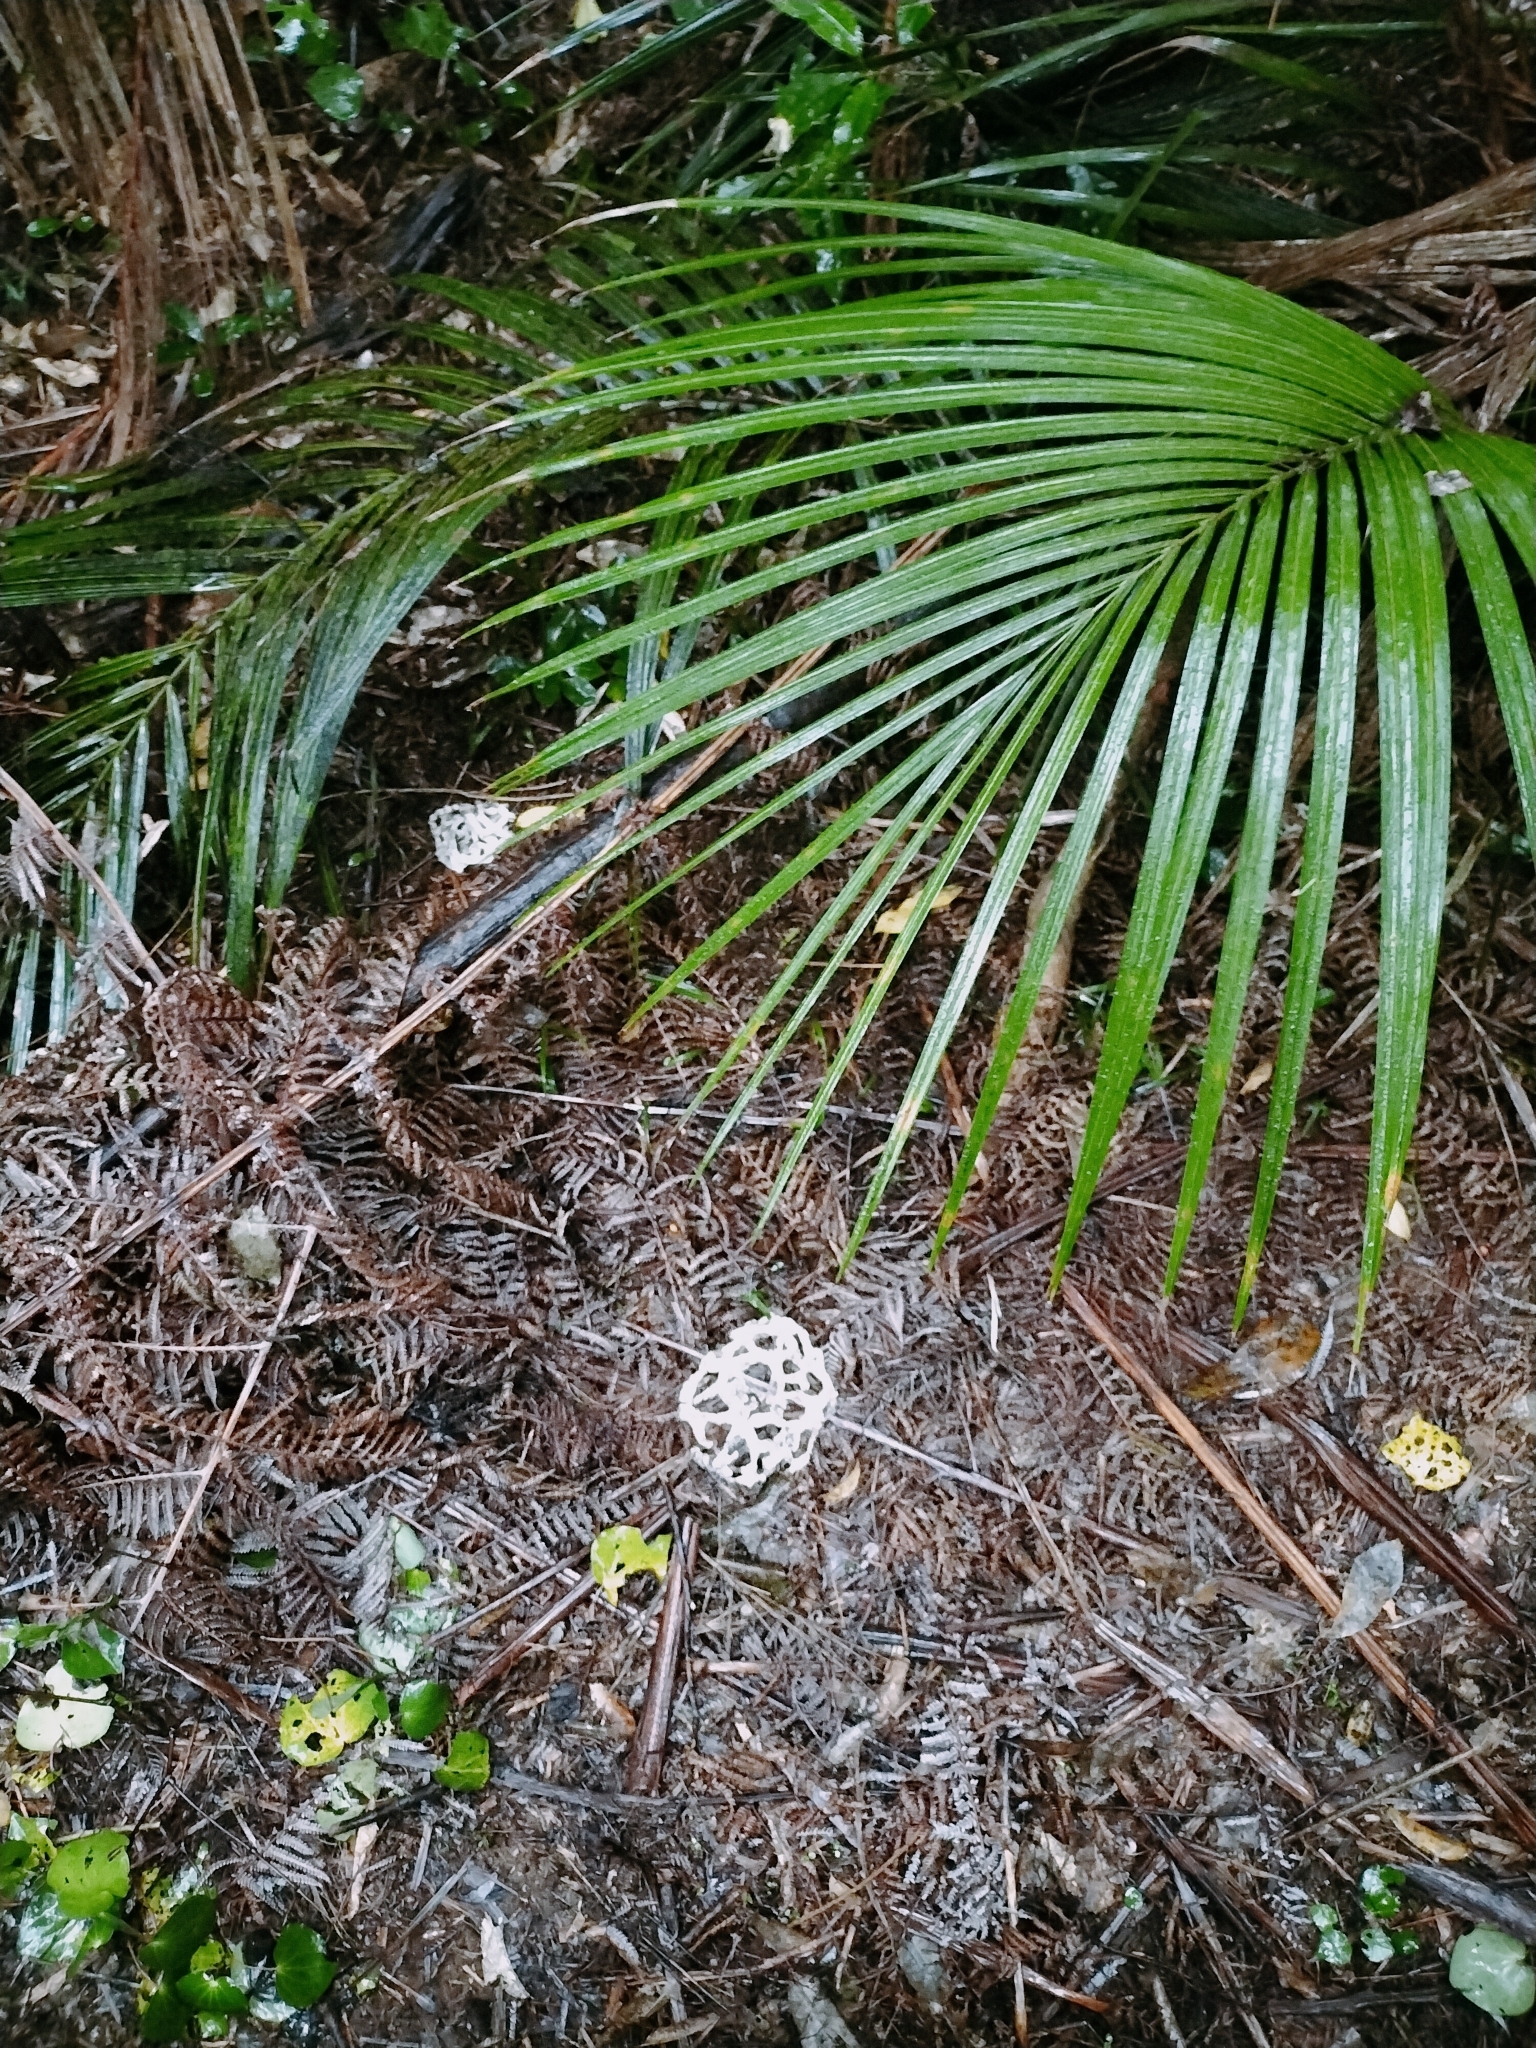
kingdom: Fungi
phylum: Basidiomycota
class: Agaricomycetes
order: Phallales
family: Phallaceae
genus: Ileodictyon
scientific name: Ileodictyon cibarium
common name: Basket fungus
